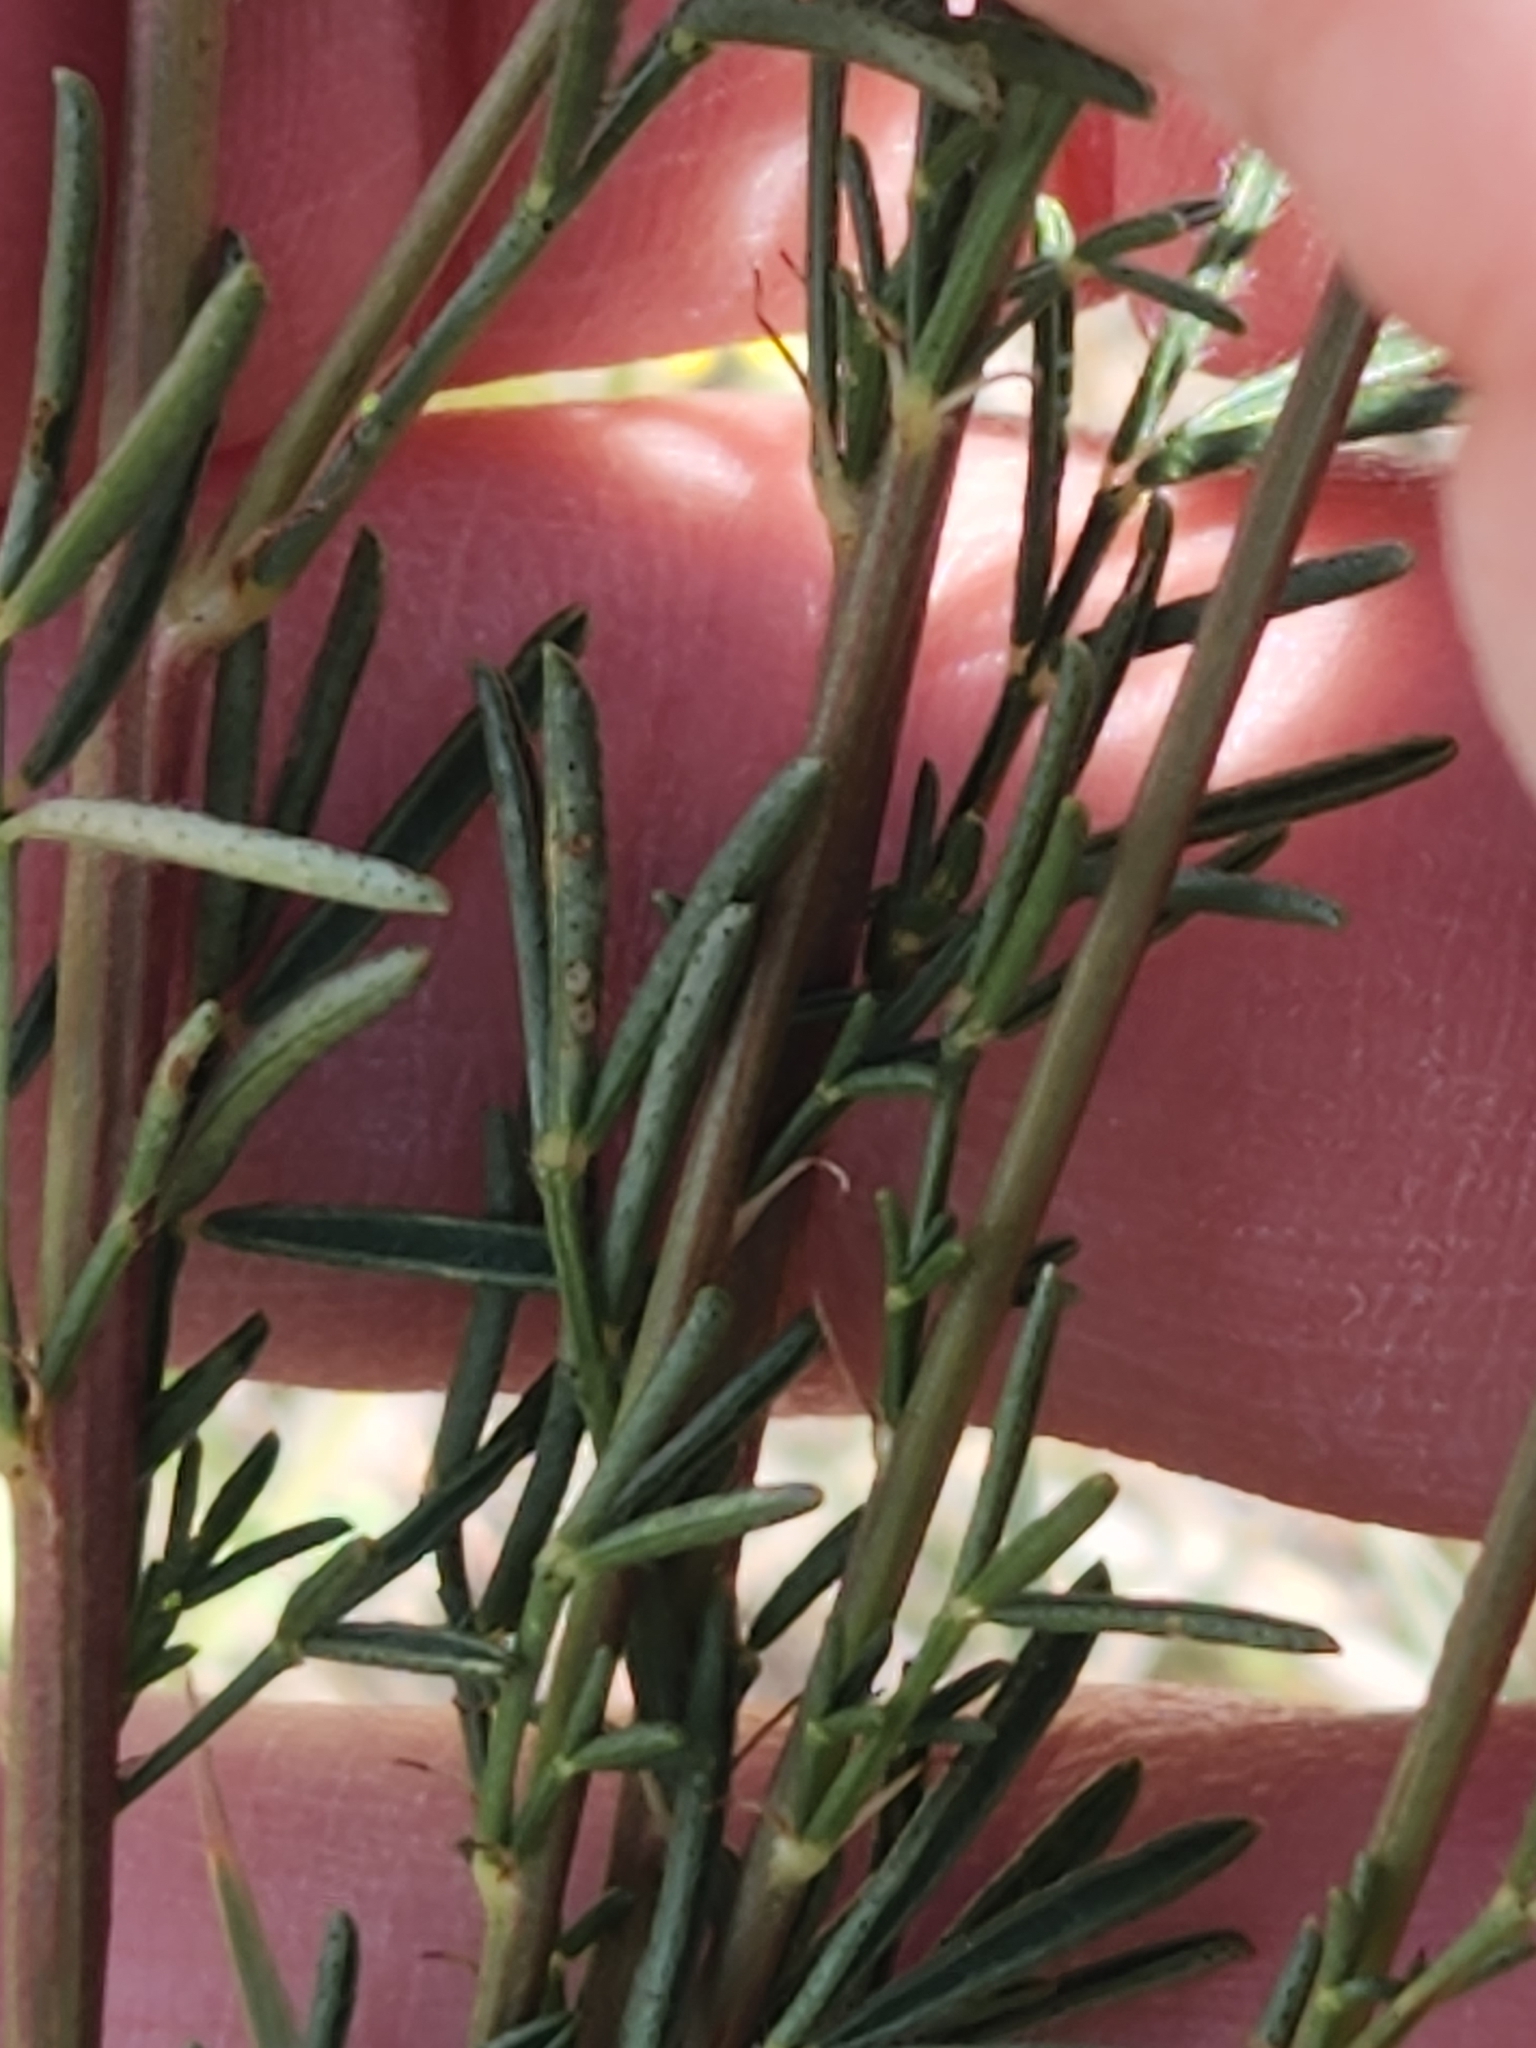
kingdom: Plantae
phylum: Tracheophyta
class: Magnoliopsida
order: Fabales
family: Fabaceae
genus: Dalea
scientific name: Dalea purpurea
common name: Purple prairie-clover
